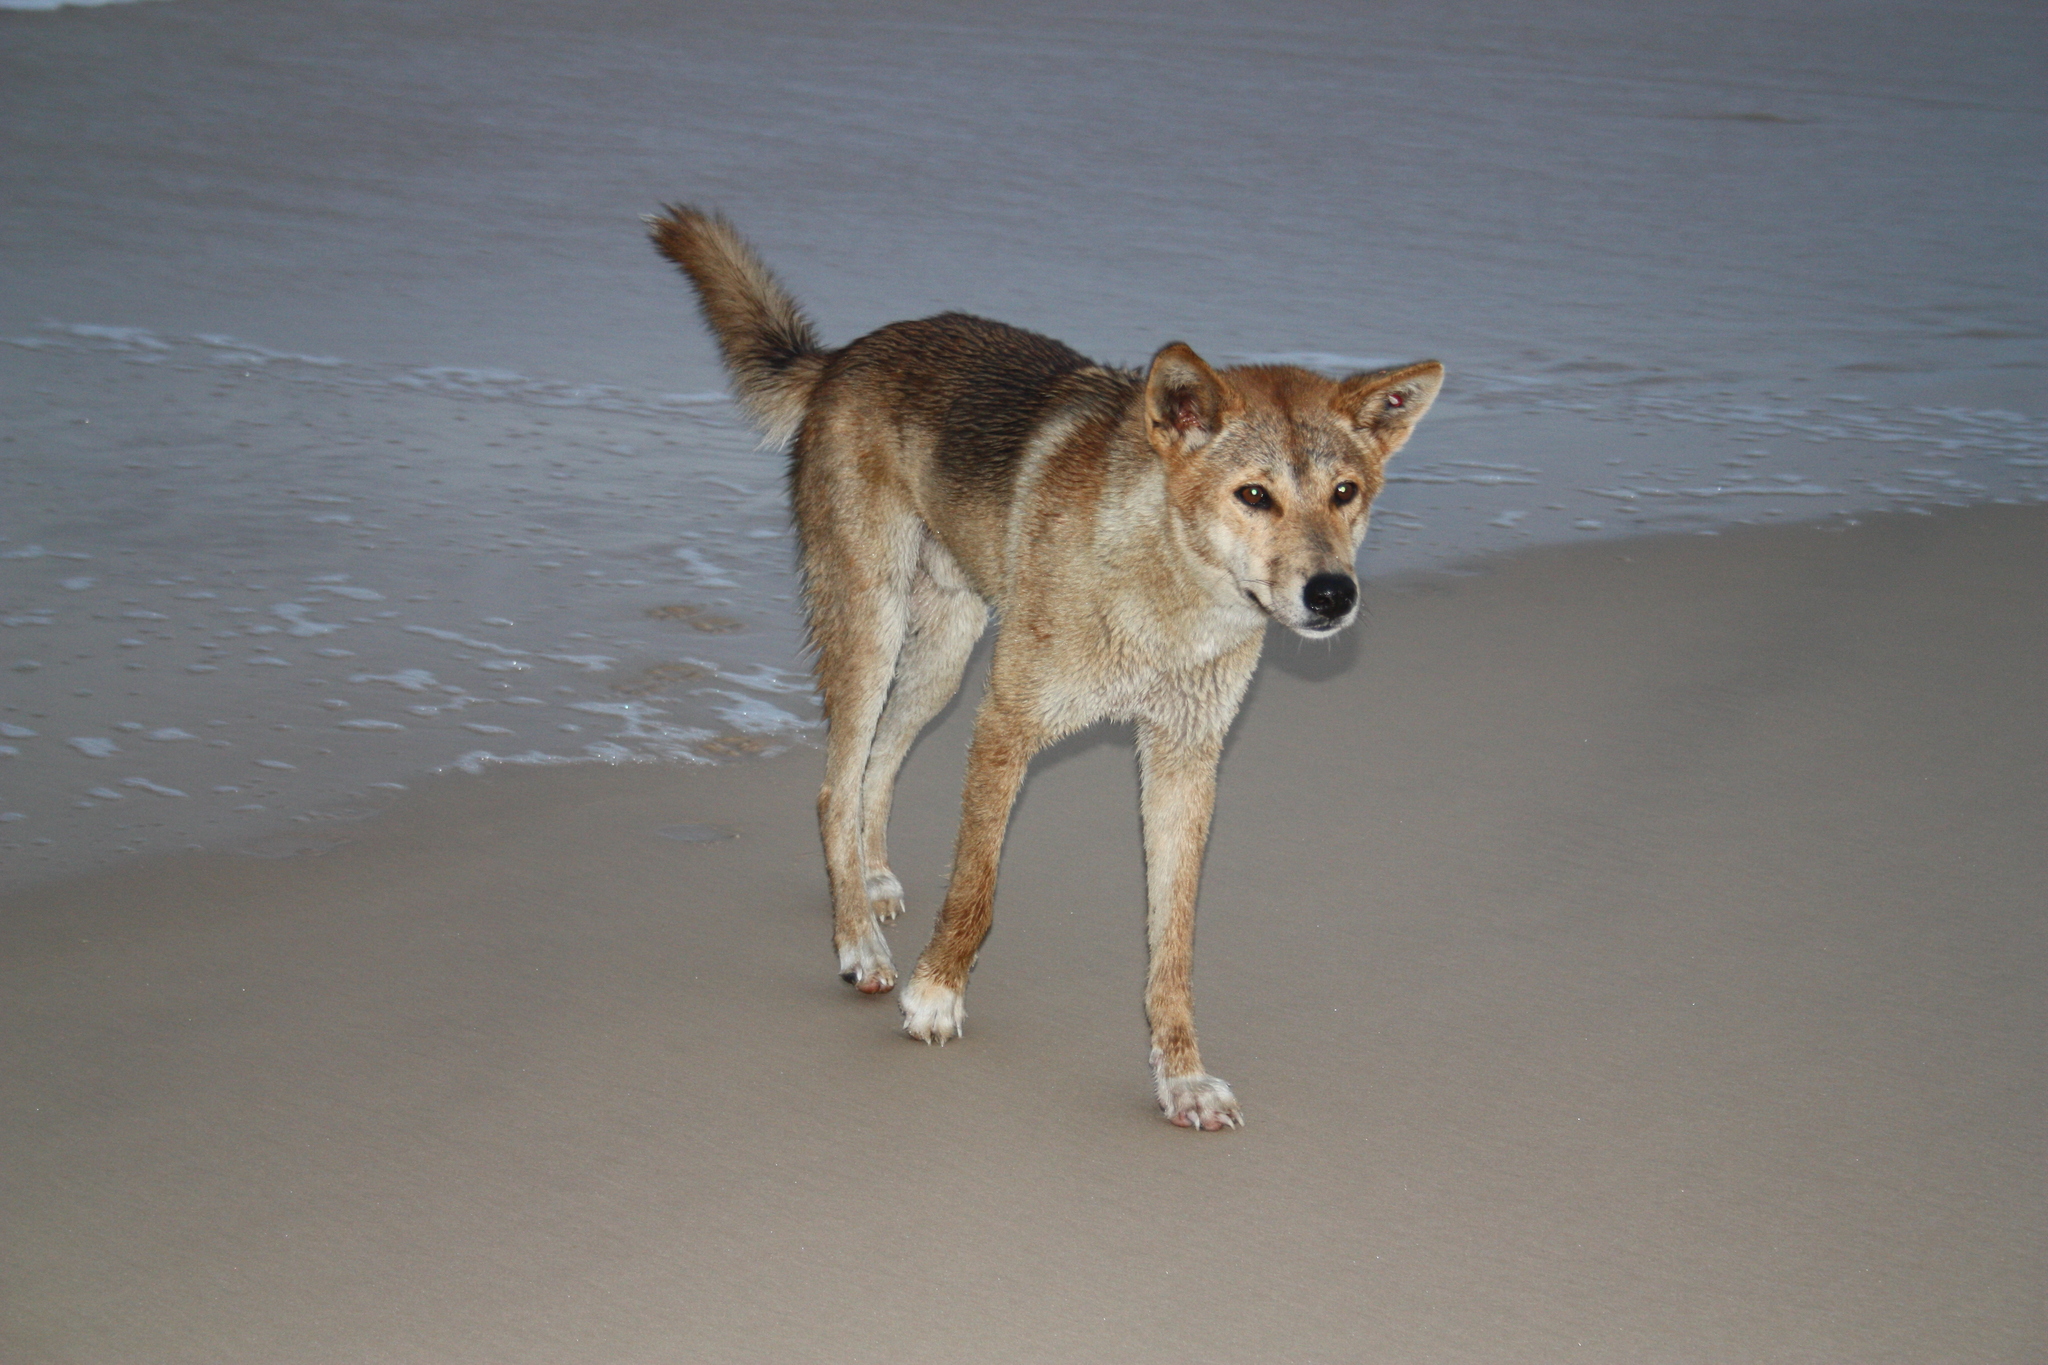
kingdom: Animalia
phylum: Chordata
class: Mammalia
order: Carnivora
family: Canidae
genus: Canis
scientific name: Canis lupus
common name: Gray wolf
